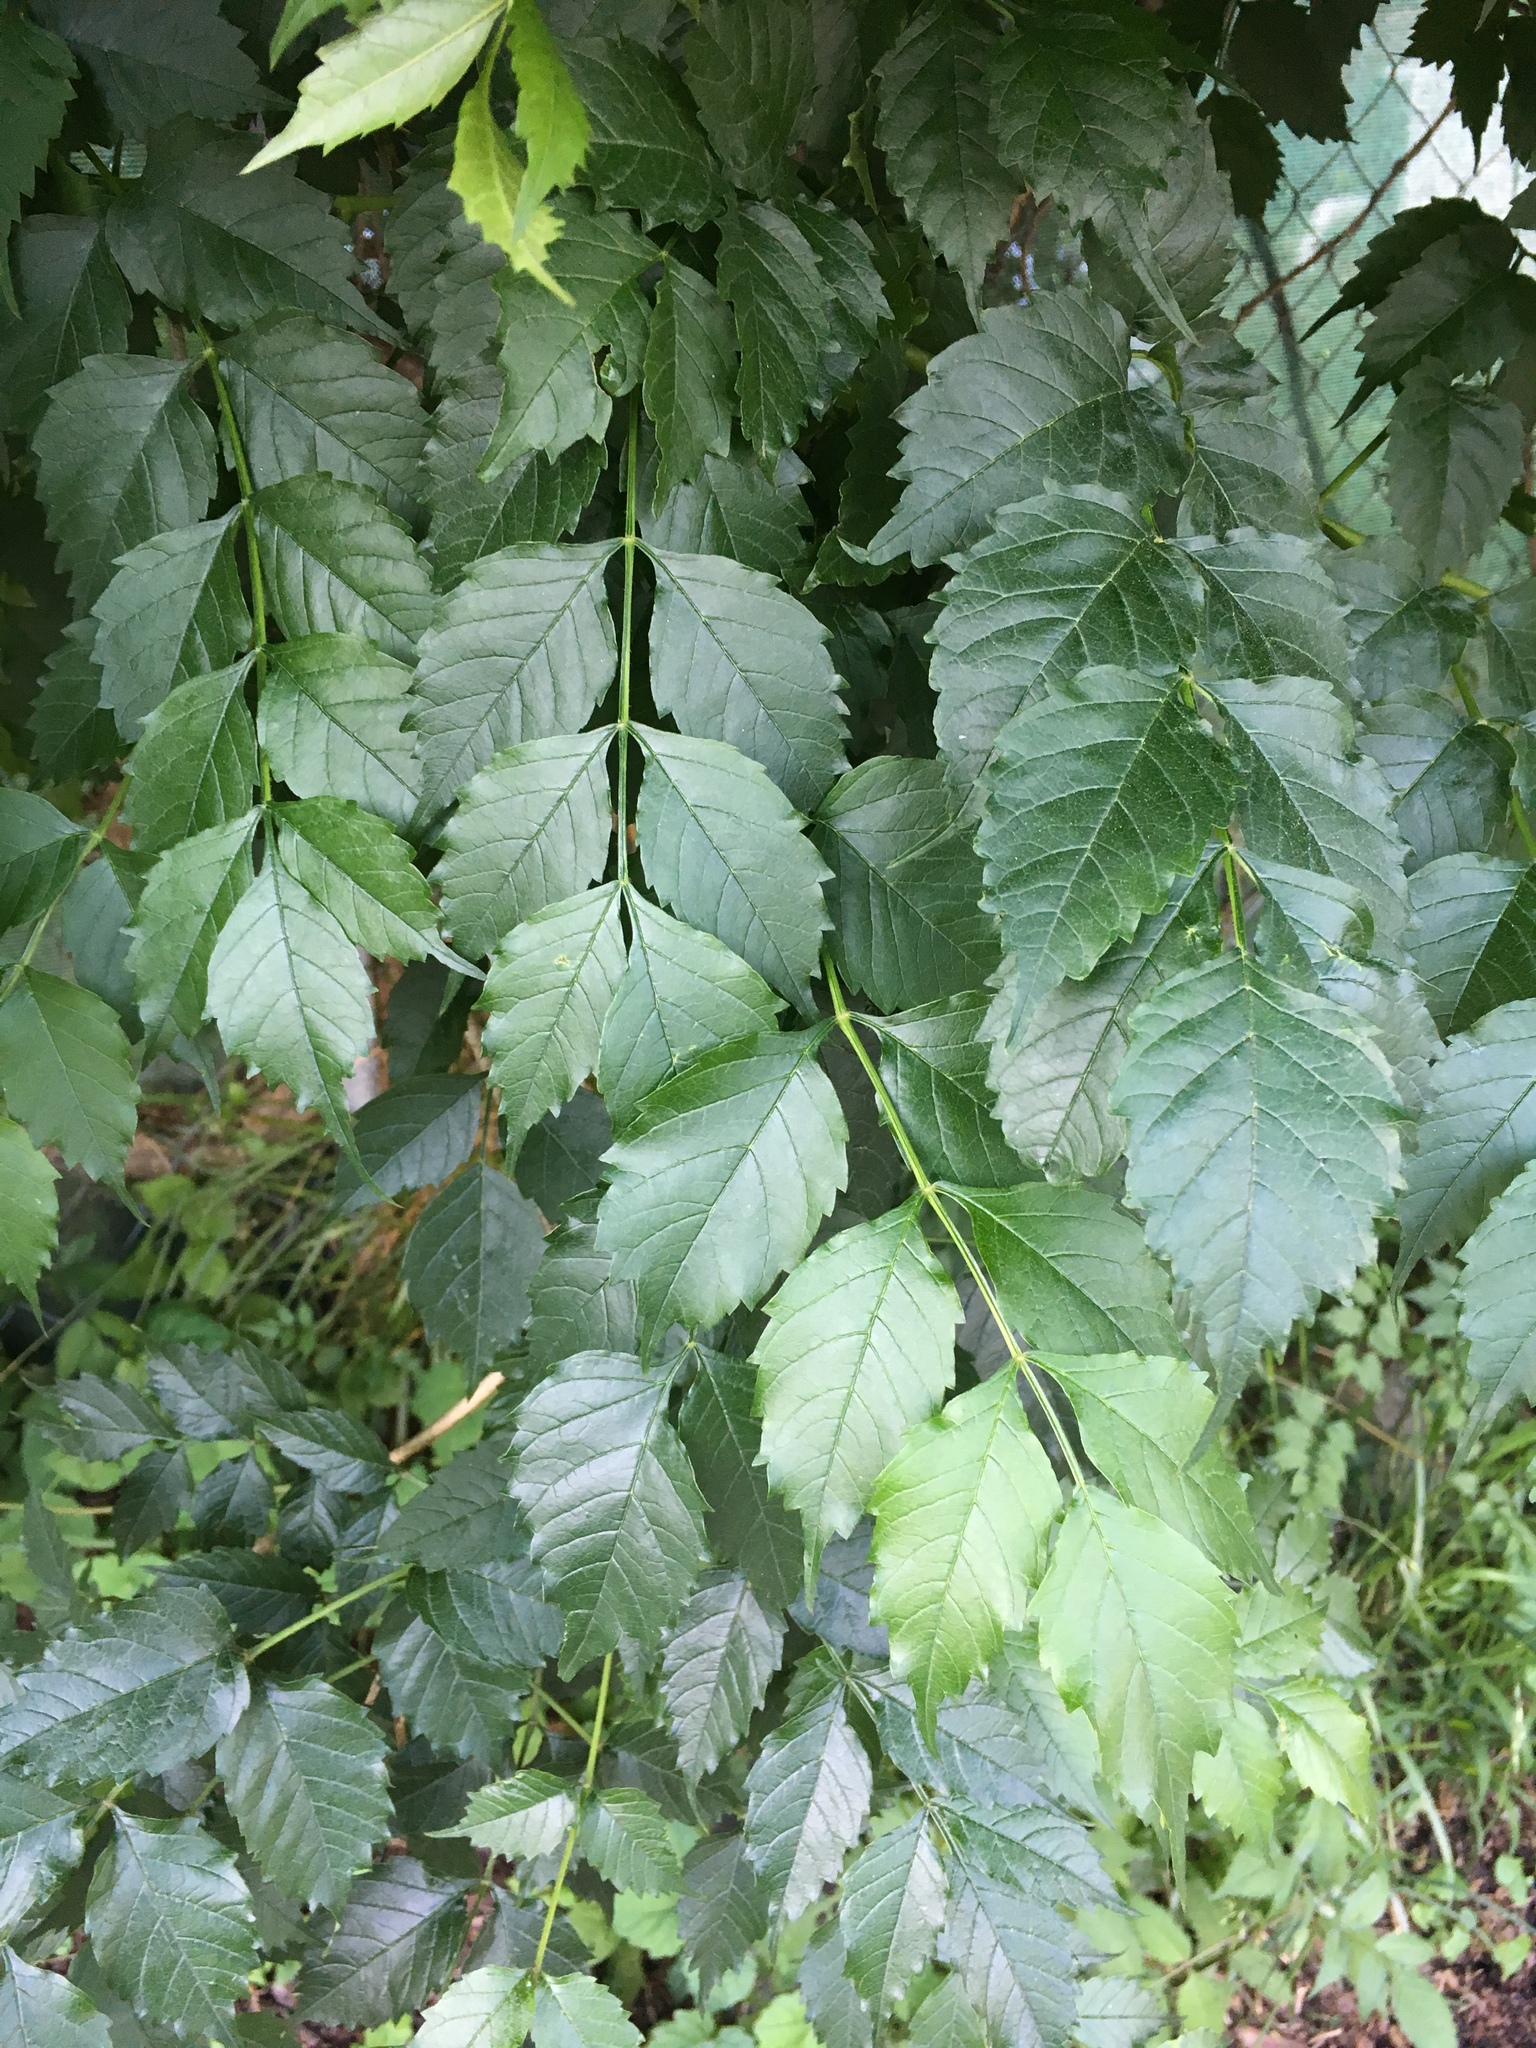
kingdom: Plantae
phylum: Tracheophyta
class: Magnoliopsida
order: Lamiales
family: Bignoniaceae
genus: Campsis
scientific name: Campsis radicans
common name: Trumpet-creeper
